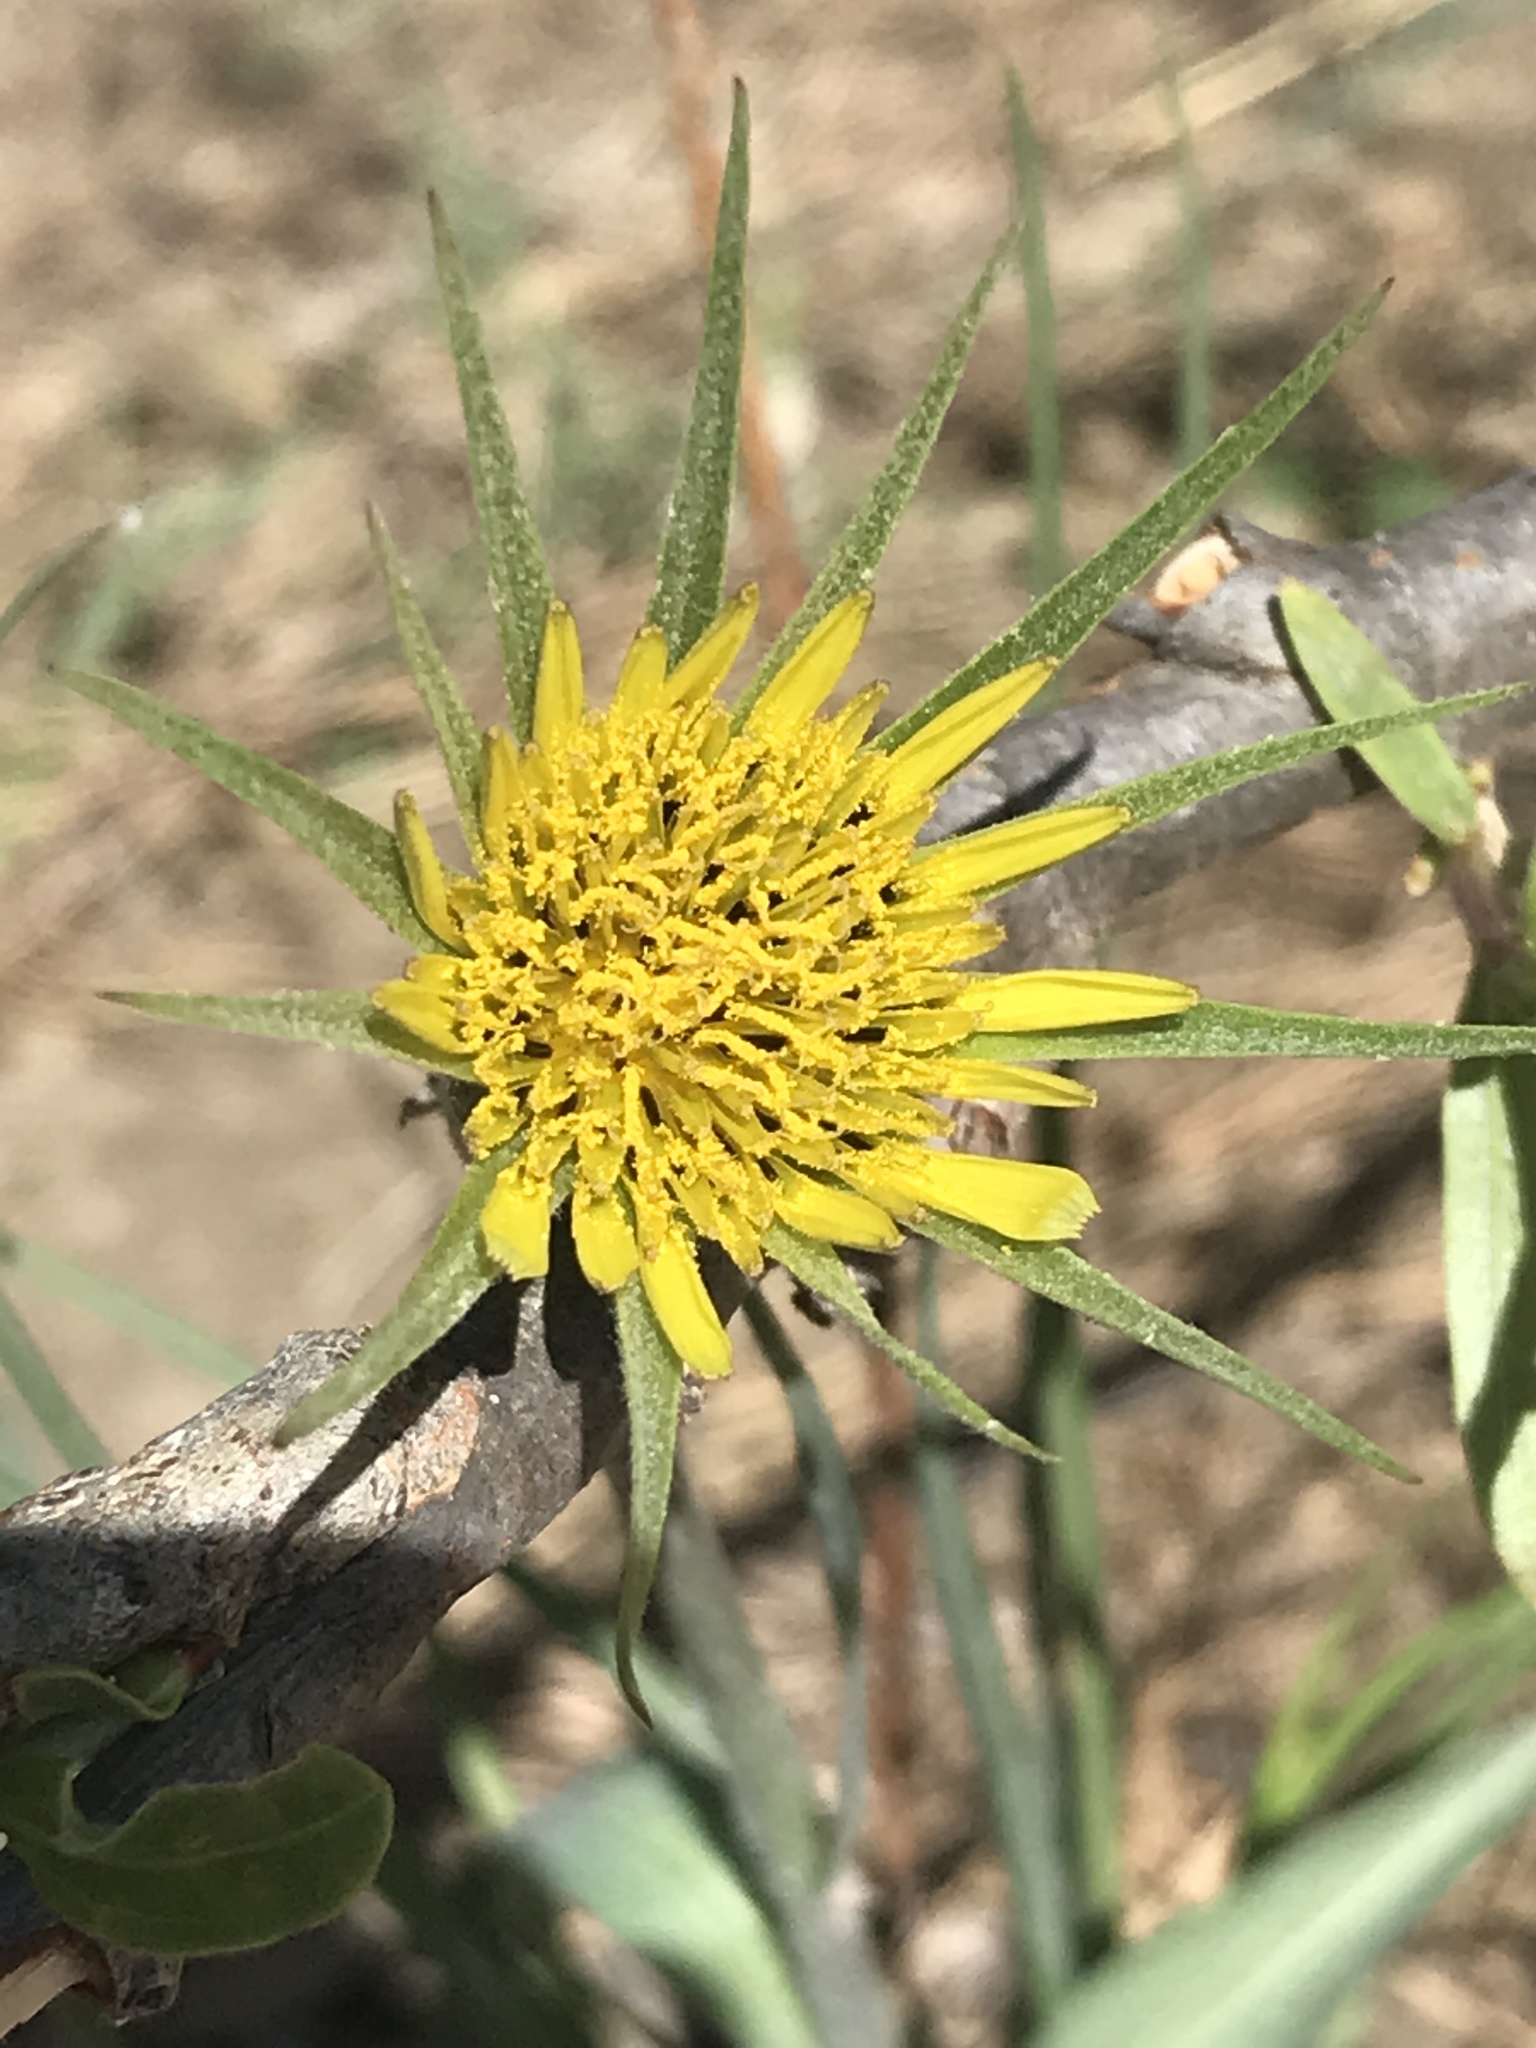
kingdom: Plantae
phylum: Tracheophyta
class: Magnoliopsida
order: Asterales
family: Asteraceae
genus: Tragopogon
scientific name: Tragopogon dubius
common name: Yellow salsify
